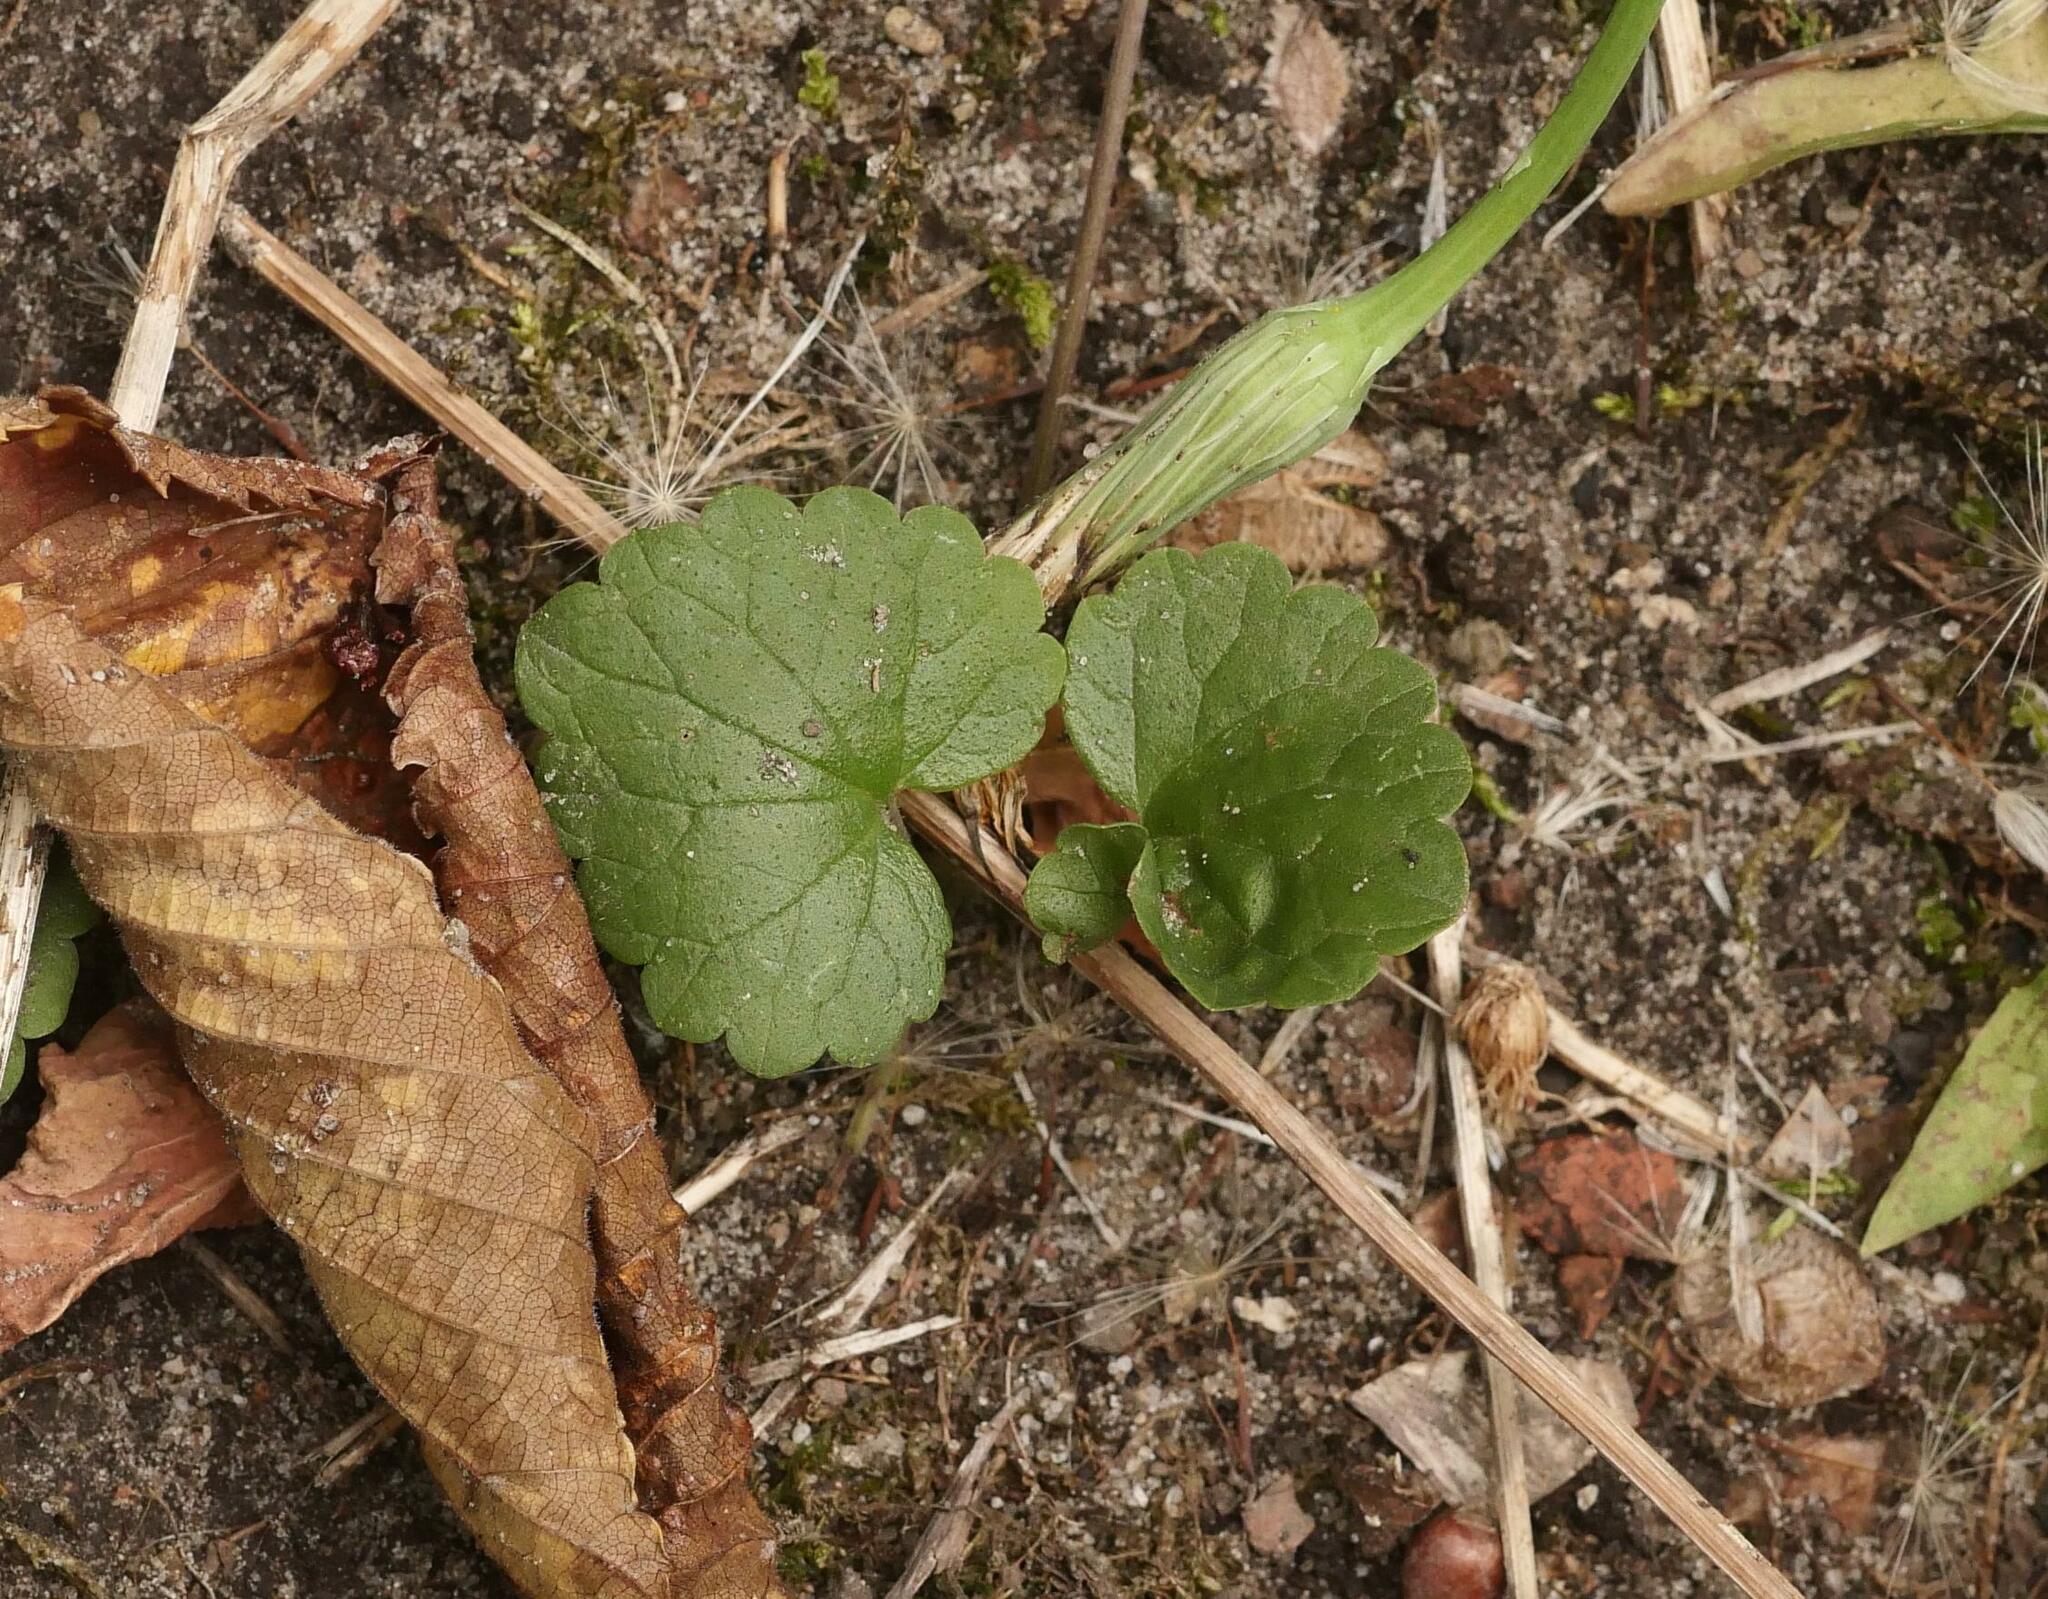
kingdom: Plantae
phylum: Tracheophyta
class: Magnoliopsida
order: Lamiales
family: Lamiaceae
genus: Glechoma
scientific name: Glechoma hederacea
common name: Ground ivy
